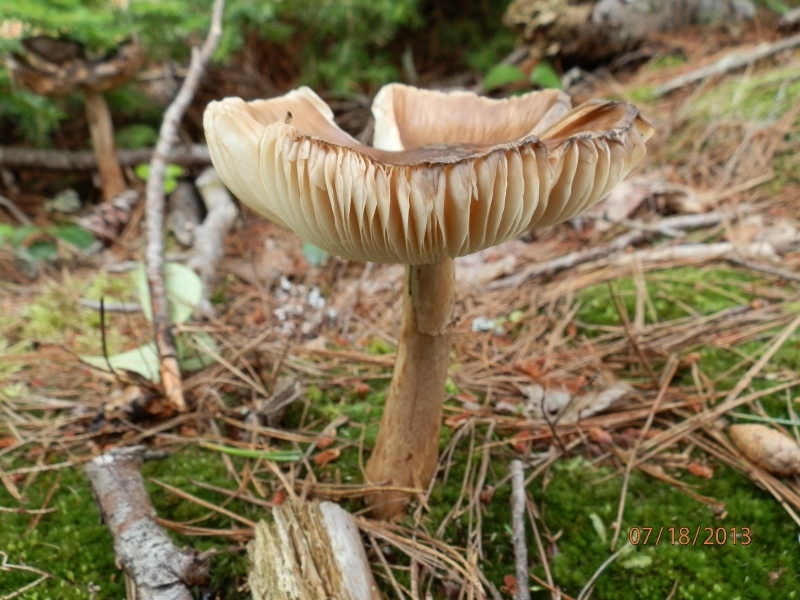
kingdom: Fungi
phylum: Basidiomycota
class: Agaricomycetes
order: Agaricales
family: Amanitaceae
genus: Amanita
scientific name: Amanita brunnescens
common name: Brown american star-footed amanita
